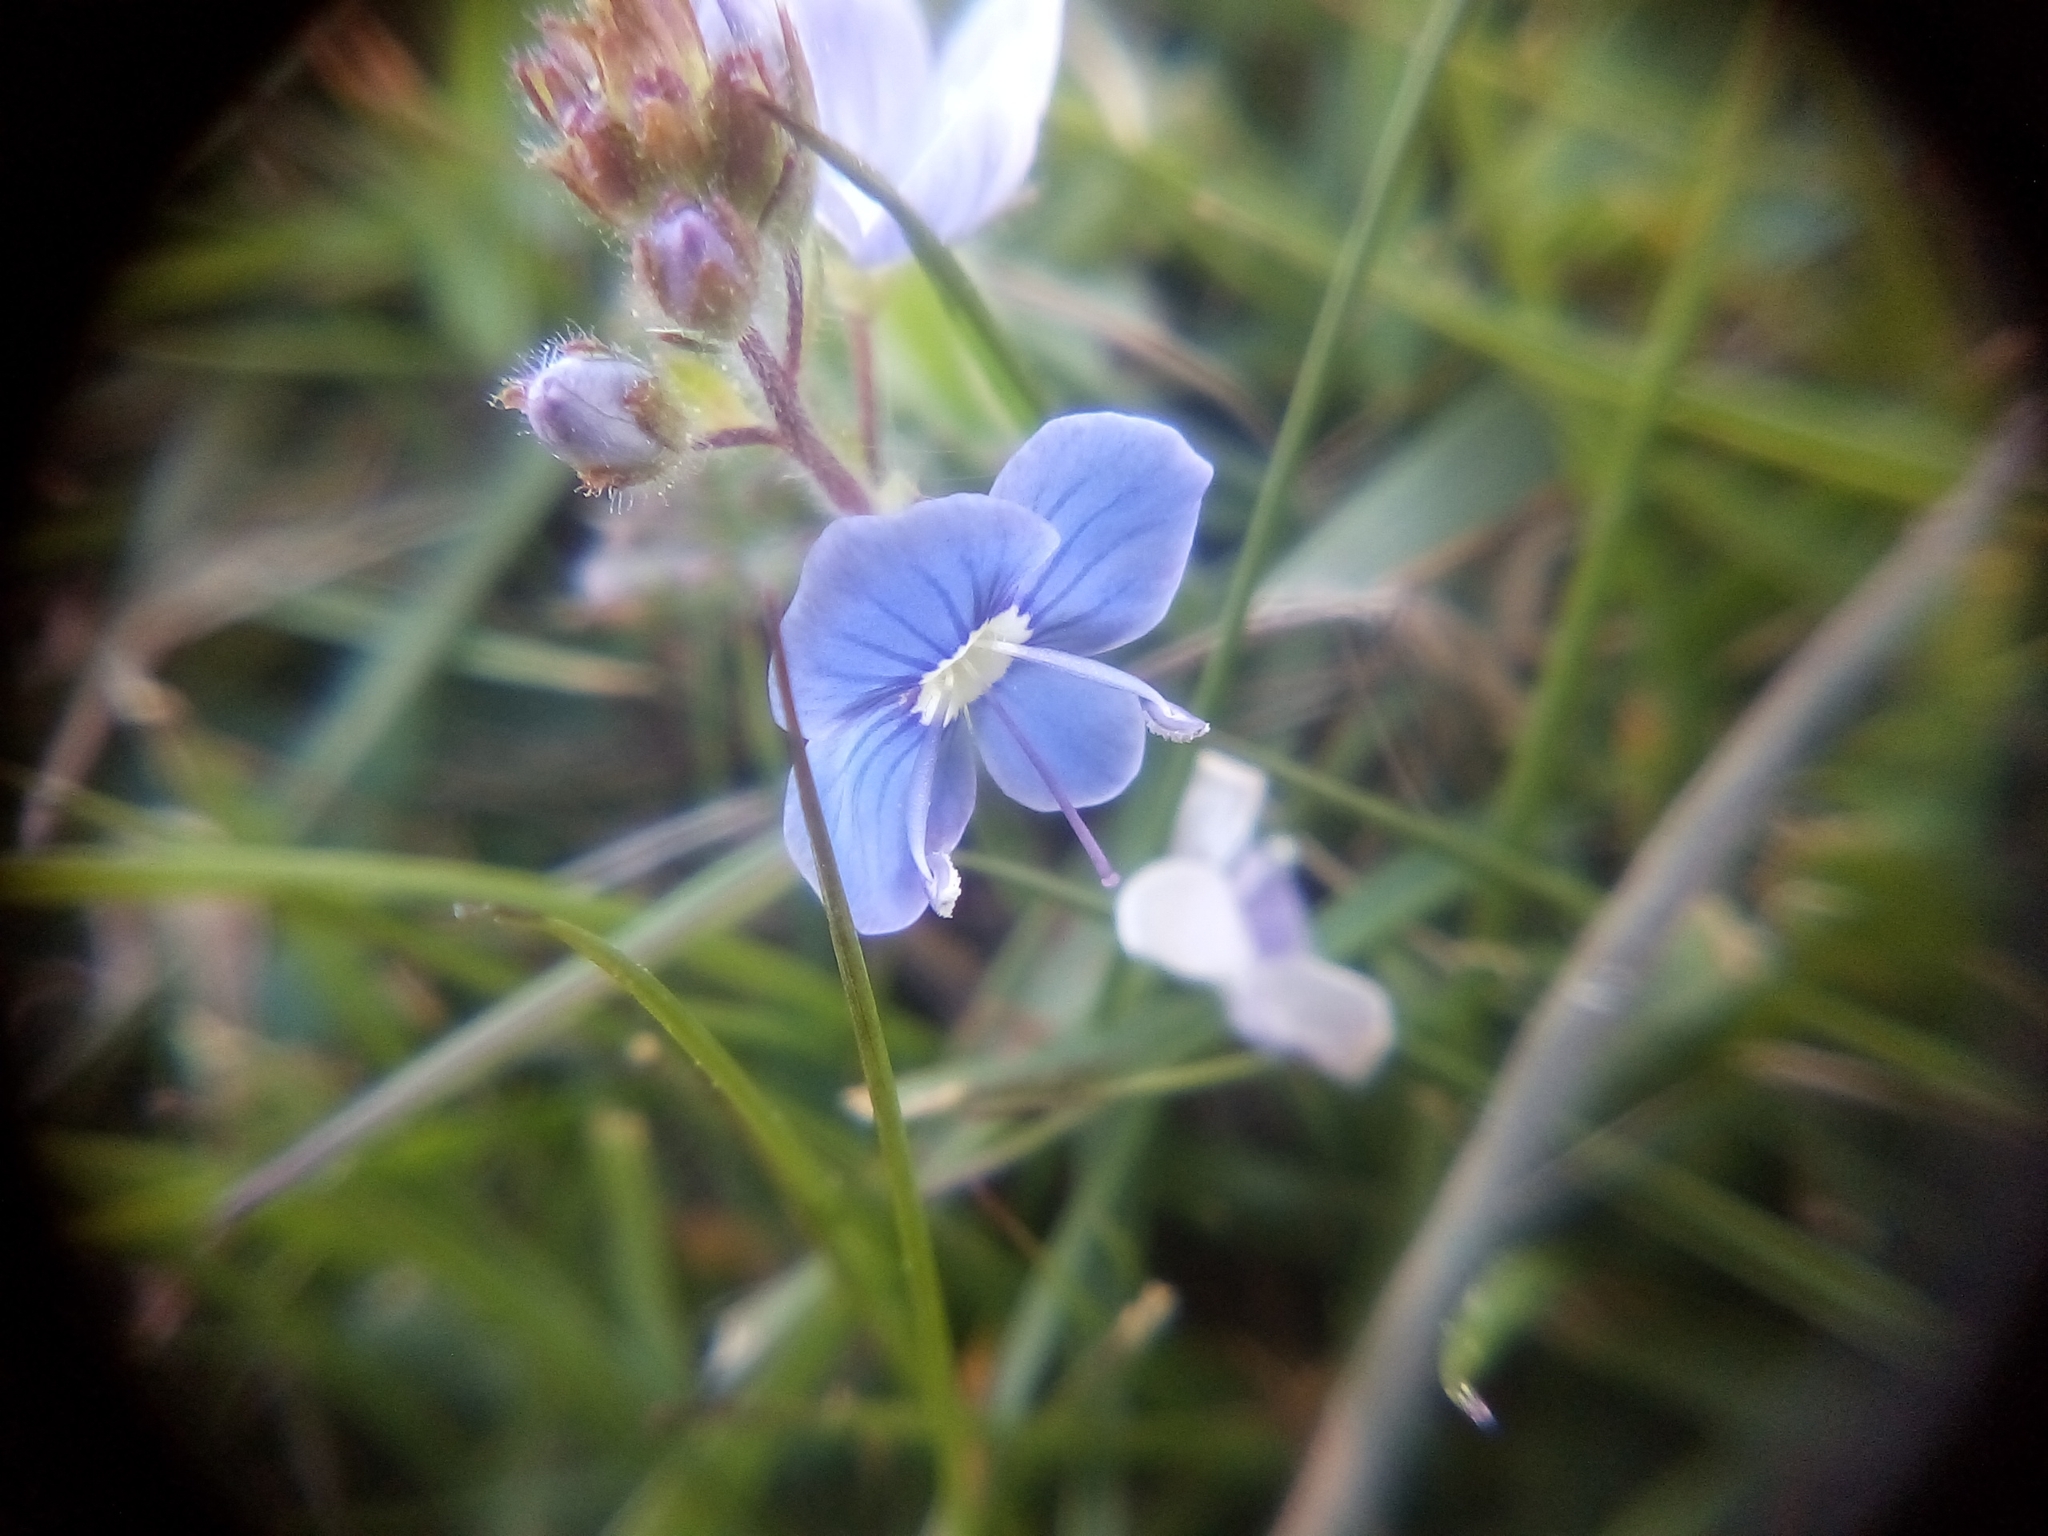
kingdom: Plantae
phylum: Tracheophyta
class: Magnoliopsida
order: Lamiales
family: Plantaginaceae
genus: Veronica
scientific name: Veronica chamaedrys
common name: Germander speedwell
